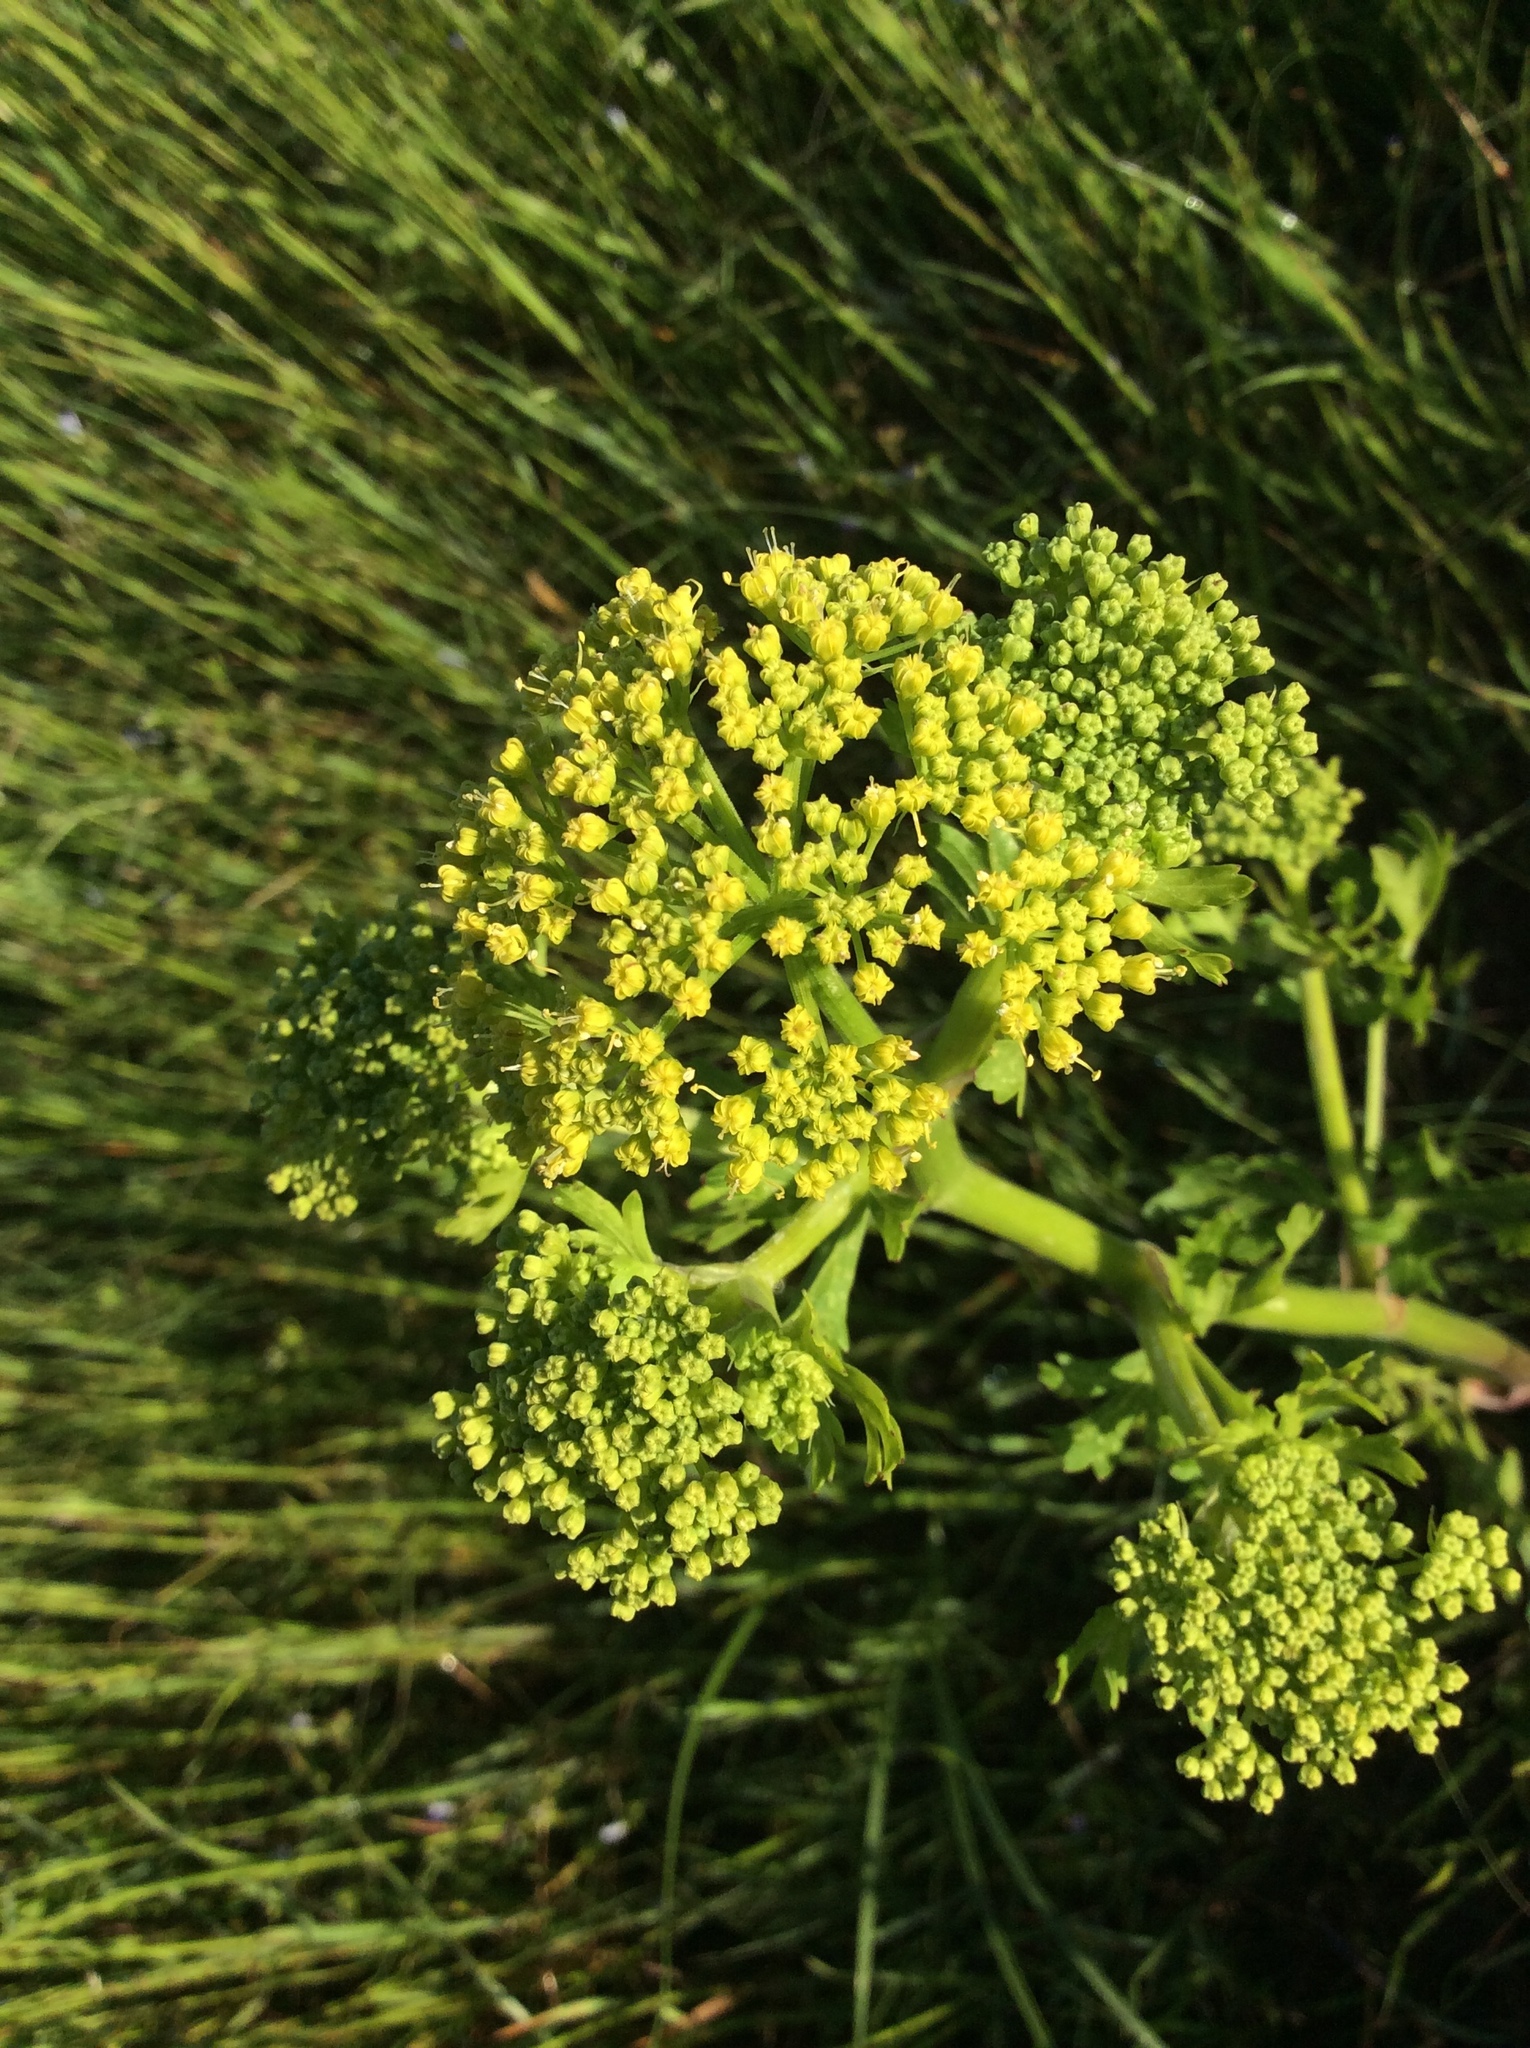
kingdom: Plantae
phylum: Tracheophyta
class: Magnoliopsida
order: Apiales
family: Apiaceae
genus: Polytaenia
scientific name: Polytaenia texana
